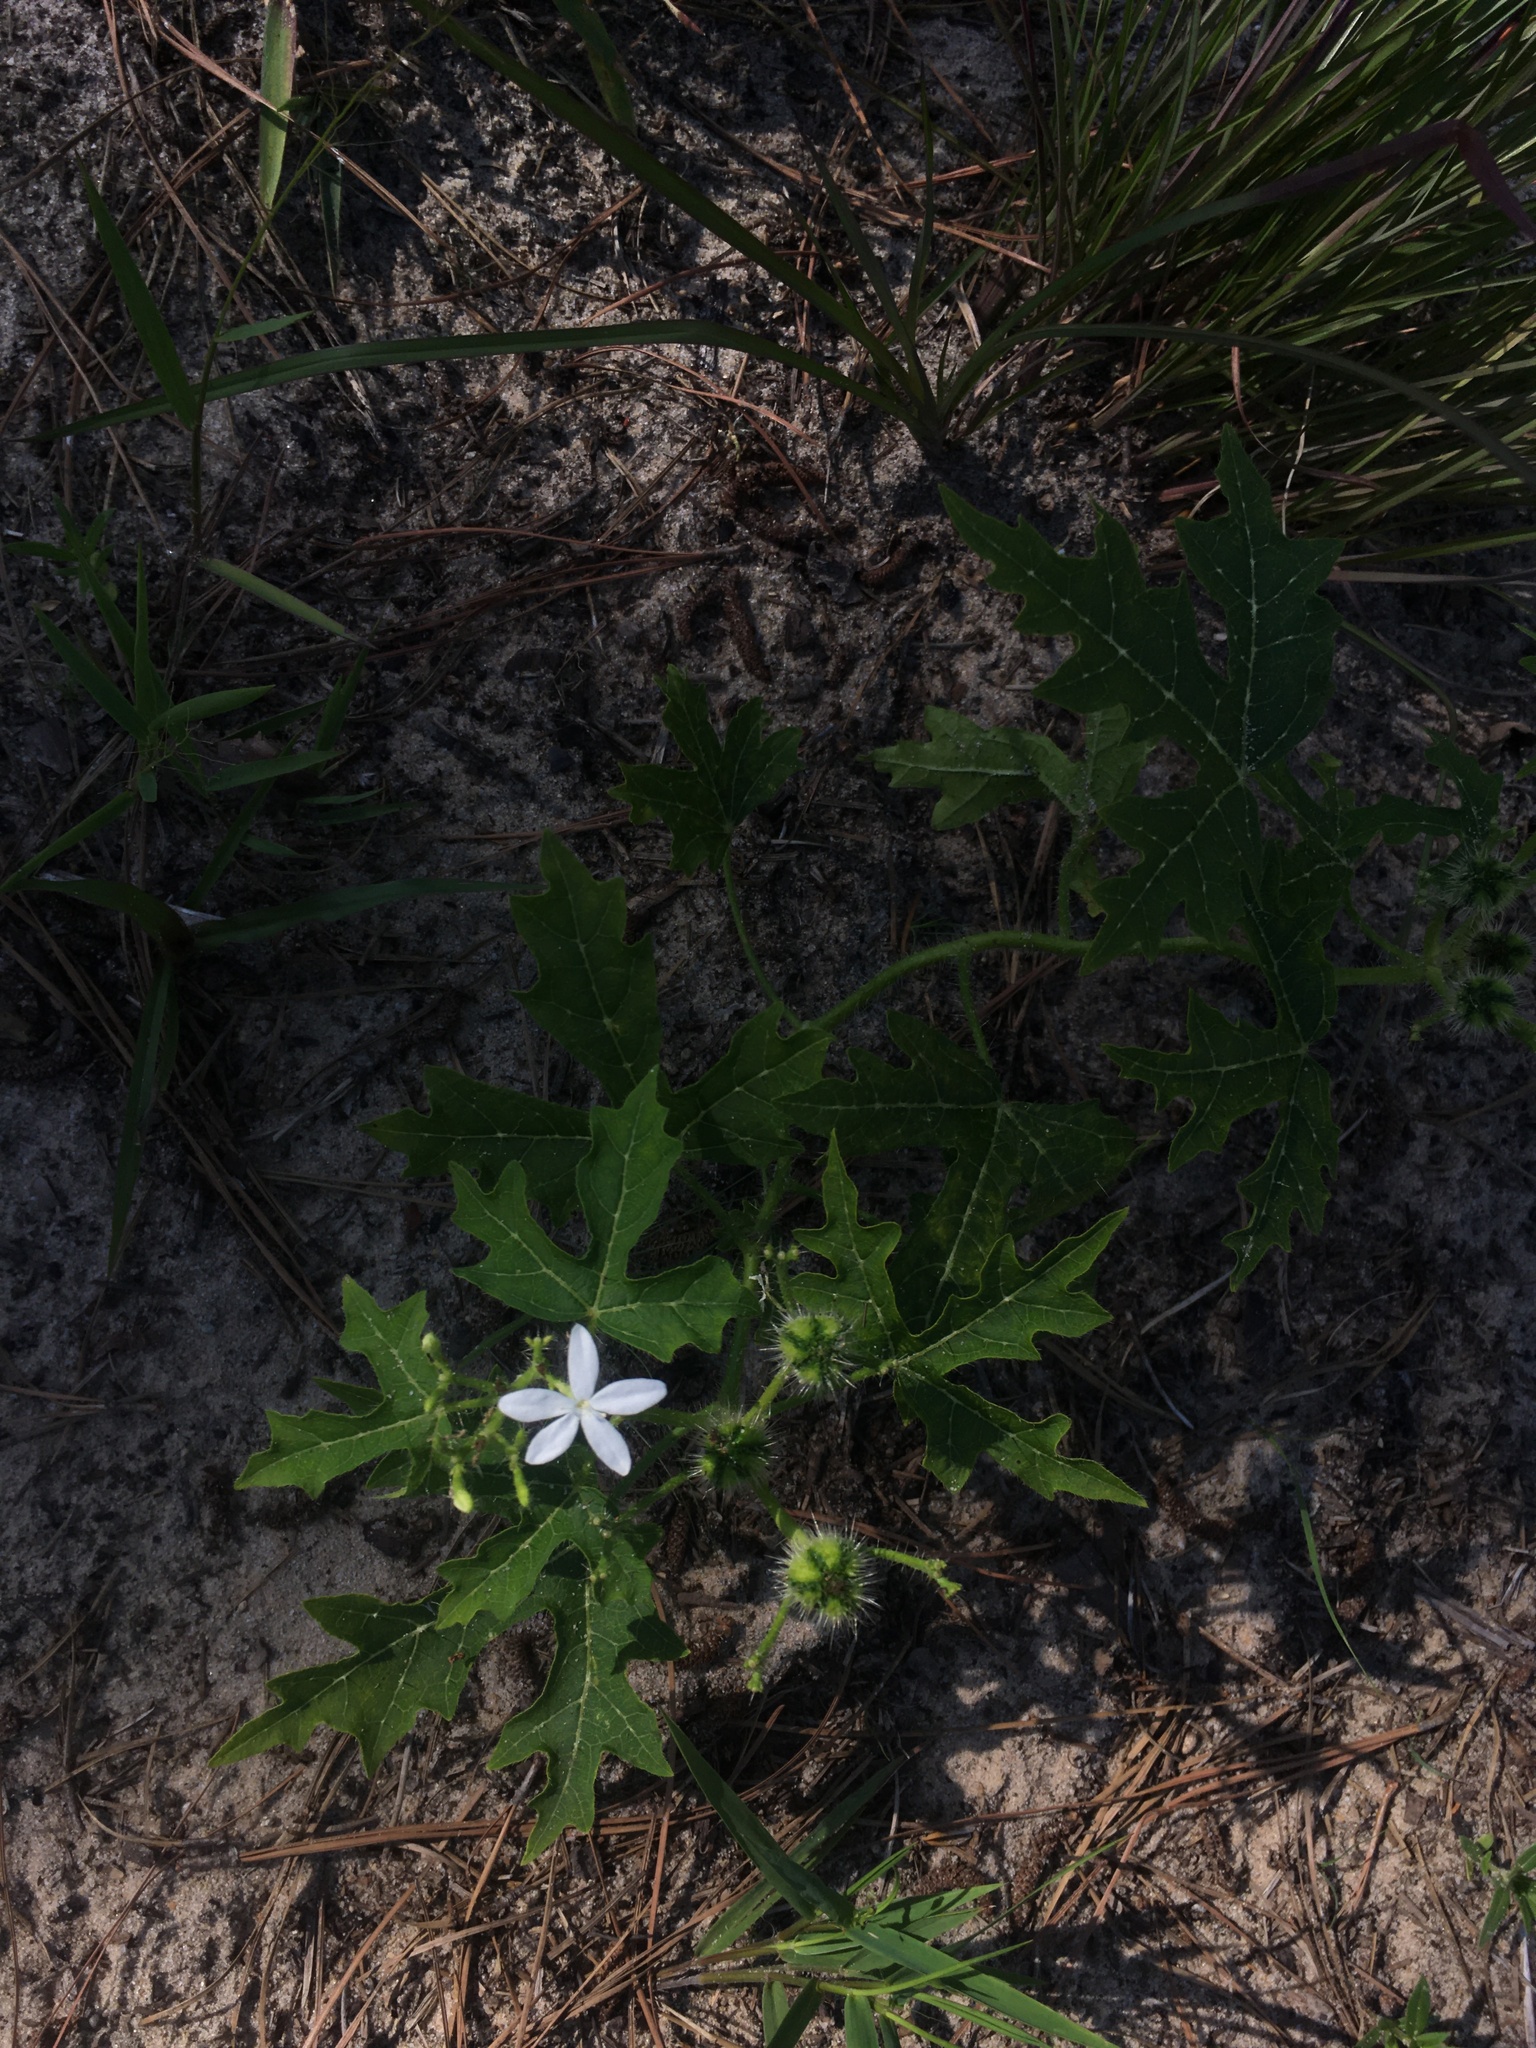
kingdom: Plantae
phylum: Tracheophyta
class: Magnoliopsida
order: Malpighiales
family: Euphorbiaceae
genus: Cnidoscolus
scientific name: Cnidoscolus stimulosus
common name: Bull-nettle
